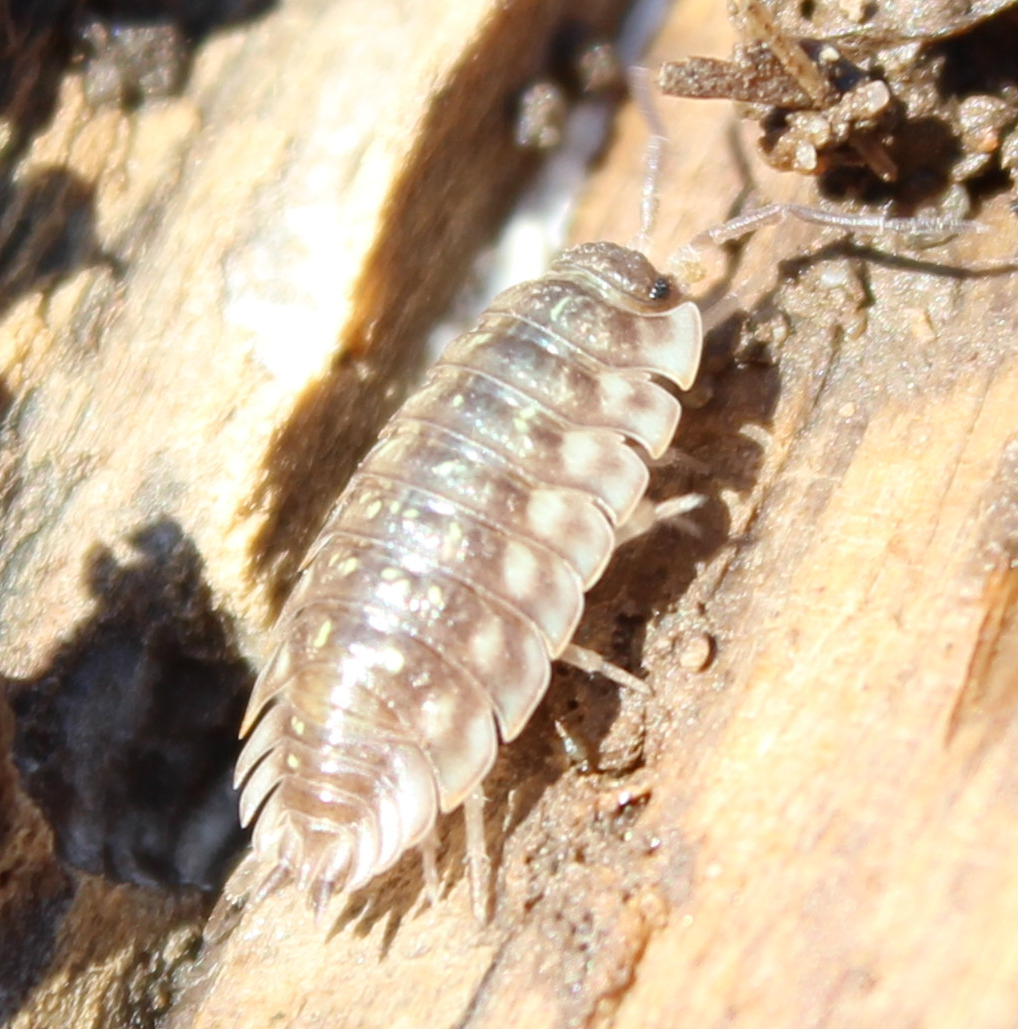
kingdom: Animalia
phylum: Arthropoda
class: Malacostraca
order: Isopoda
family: Oniscidae
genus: Oniscus
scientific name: Oniscus asellus
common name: Common shiny woodlouse
